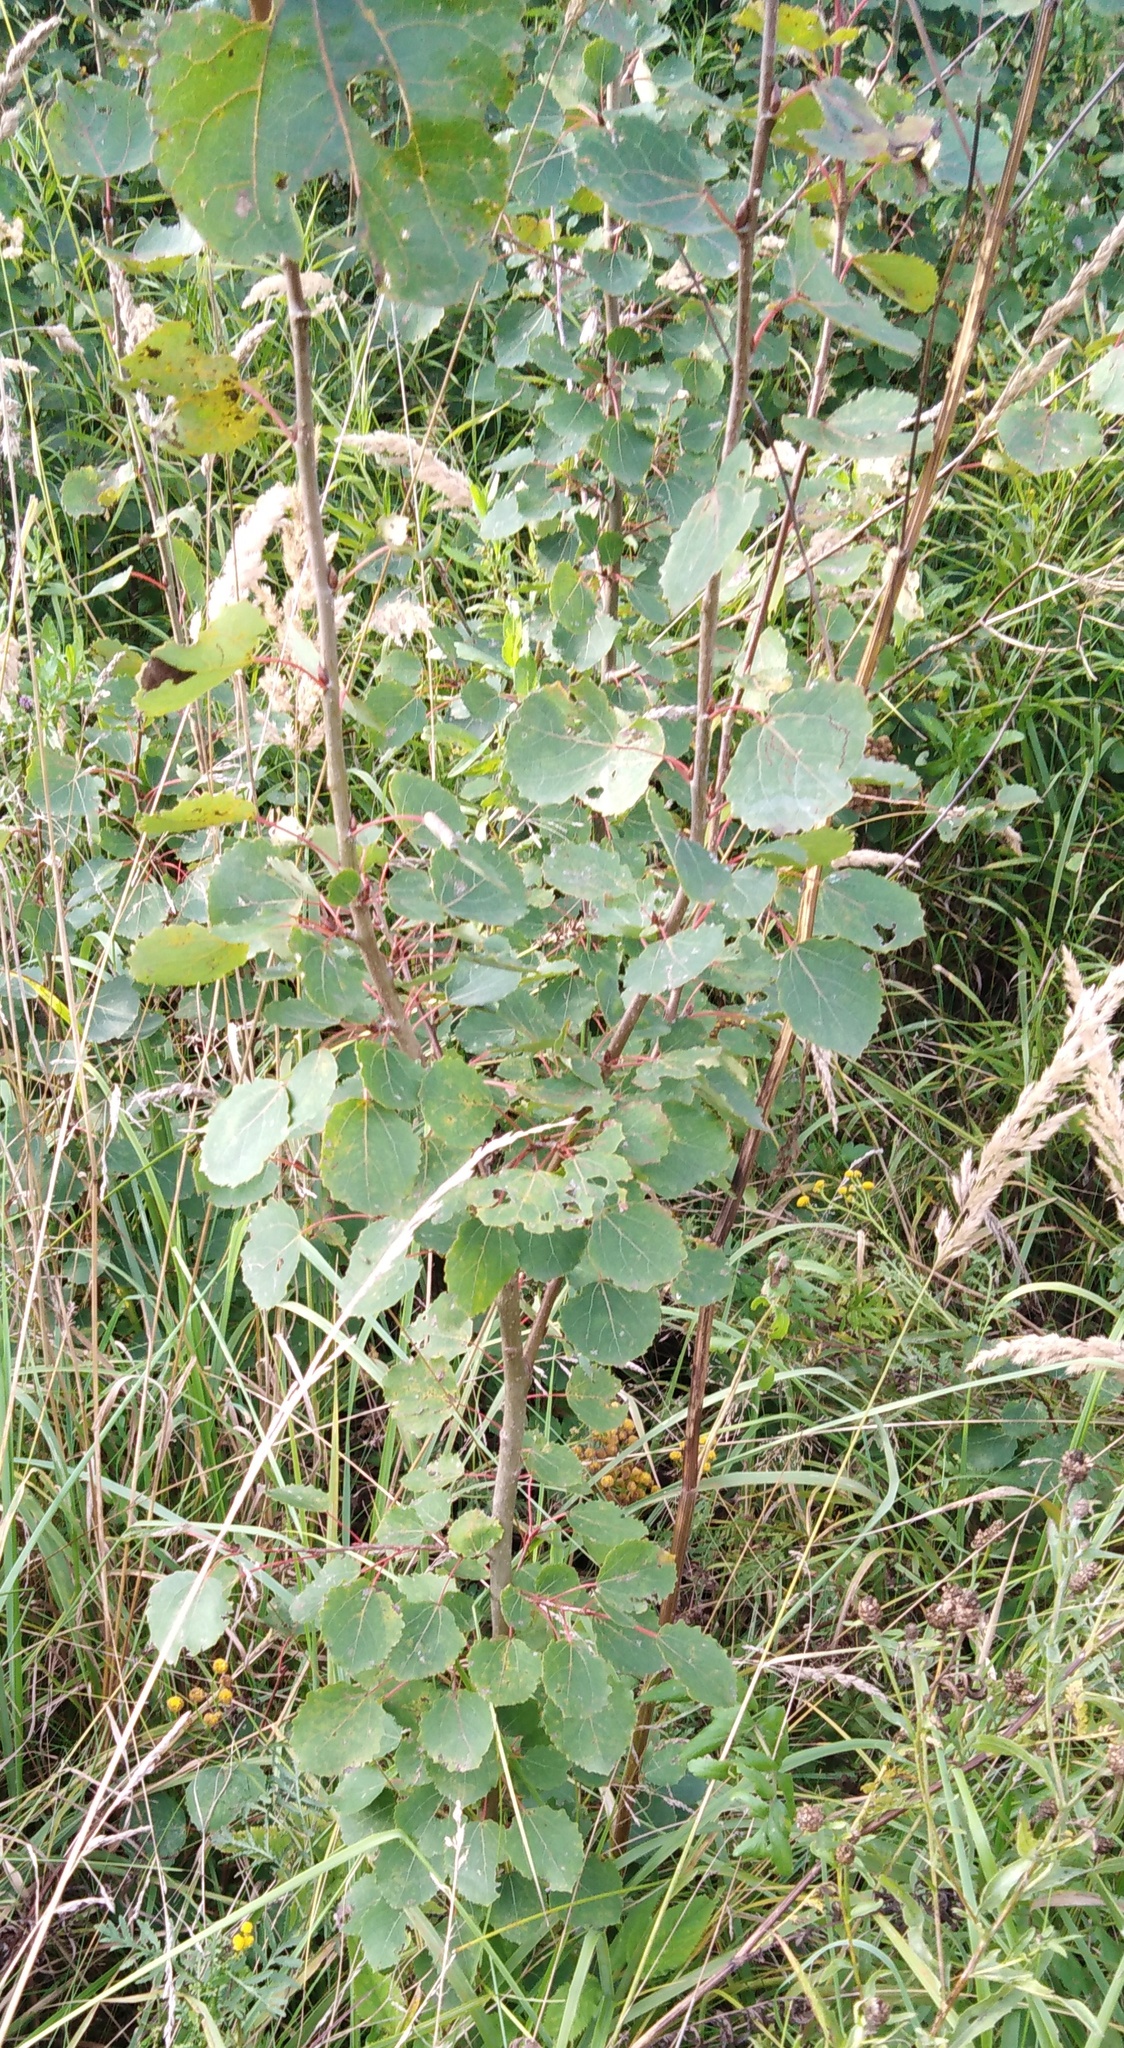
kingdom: Plantae
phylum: Tracheophyta
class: Magnoliopsida
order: Malpighiales
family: Salicaceae
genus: Populus
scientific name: Populus tremula
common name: European aspen
